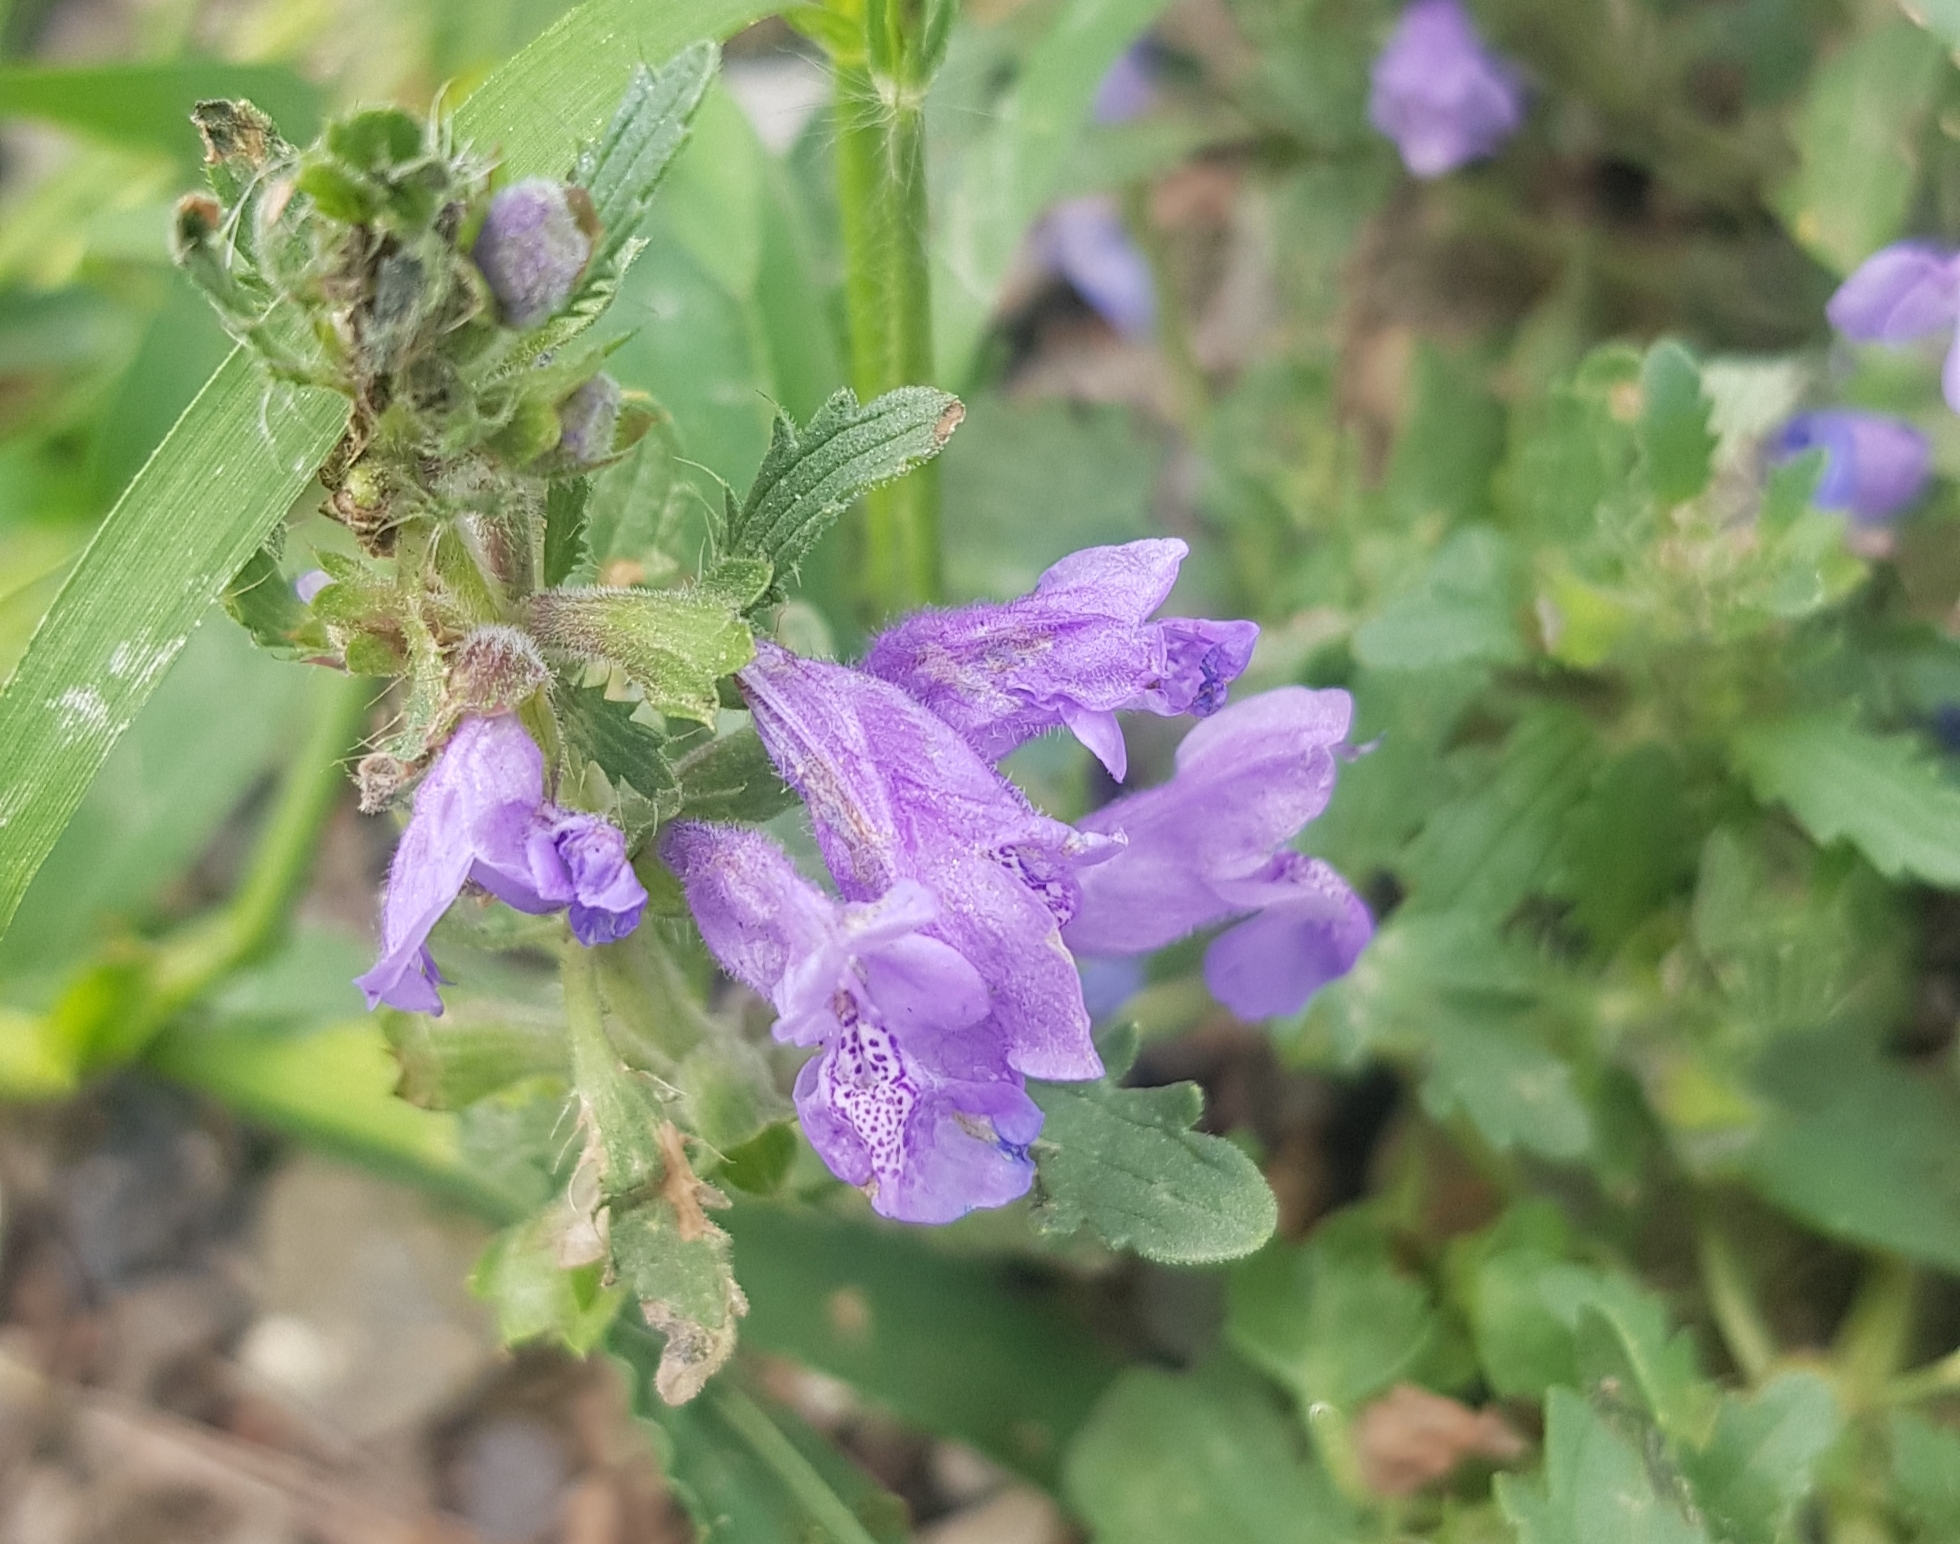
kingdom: Plantae
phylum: Tracheophyta
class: Magnoliopsida
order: Lamiales
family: Lamiaceae
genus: Dracocephalum
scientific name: Dracocephalum foetidum
